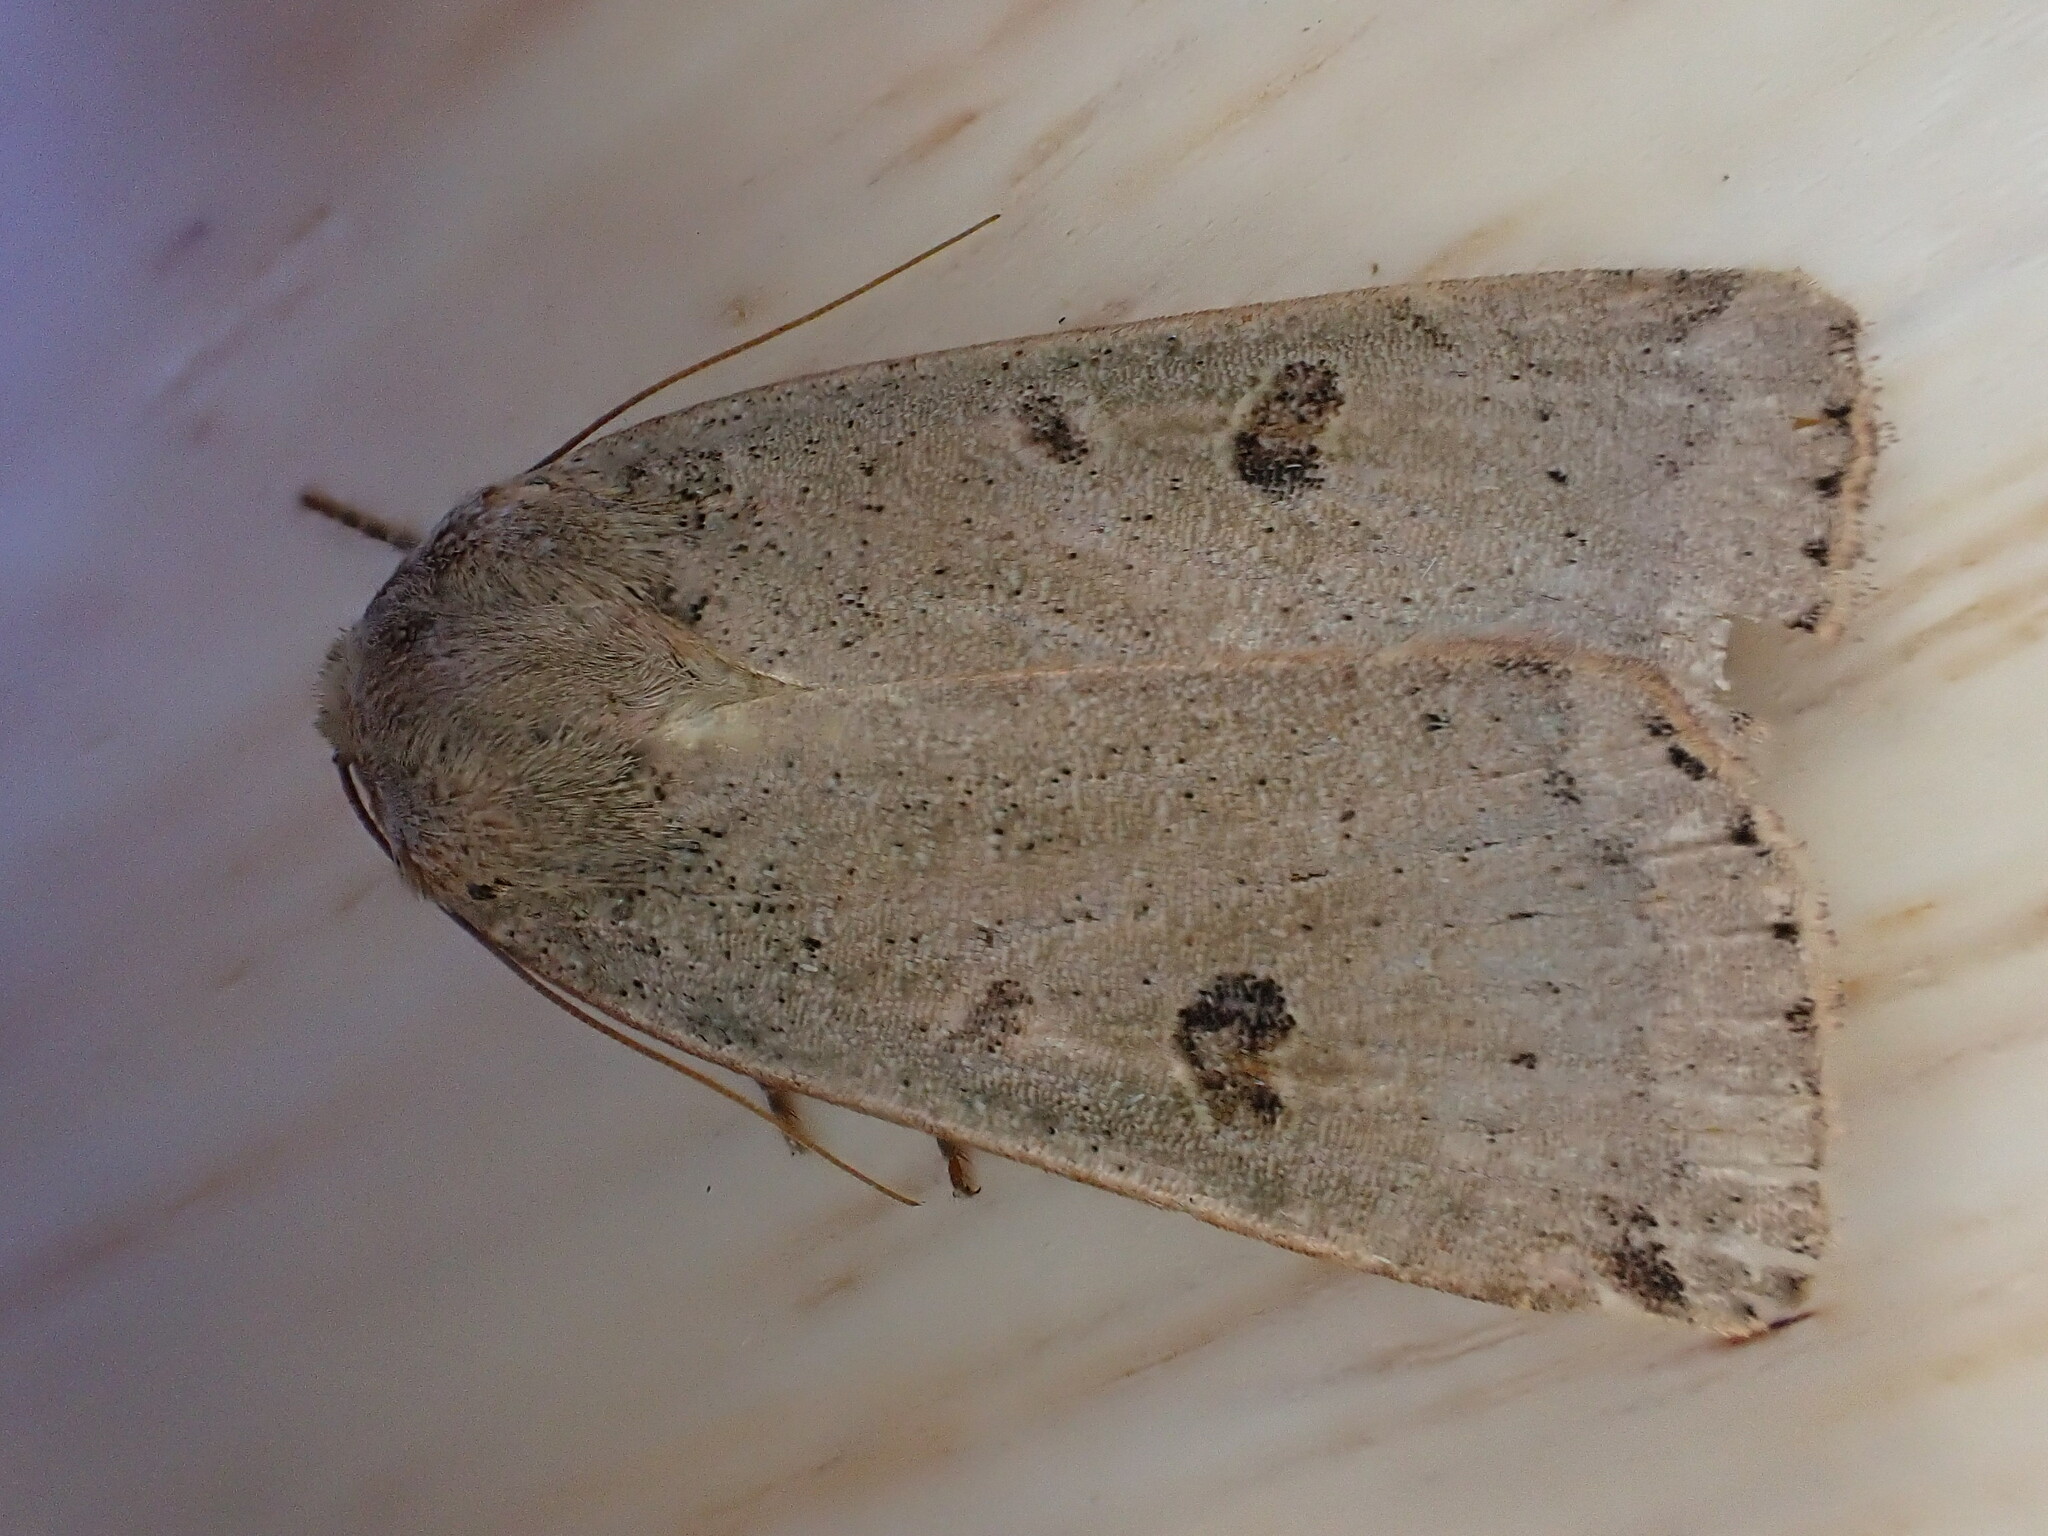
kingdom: Animalia
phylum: Arthropoda
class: Insecta
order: Lepidoptera
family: Noctuidae
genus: Noctua
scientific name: Noctua comes
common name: Lesser yellow underwing
